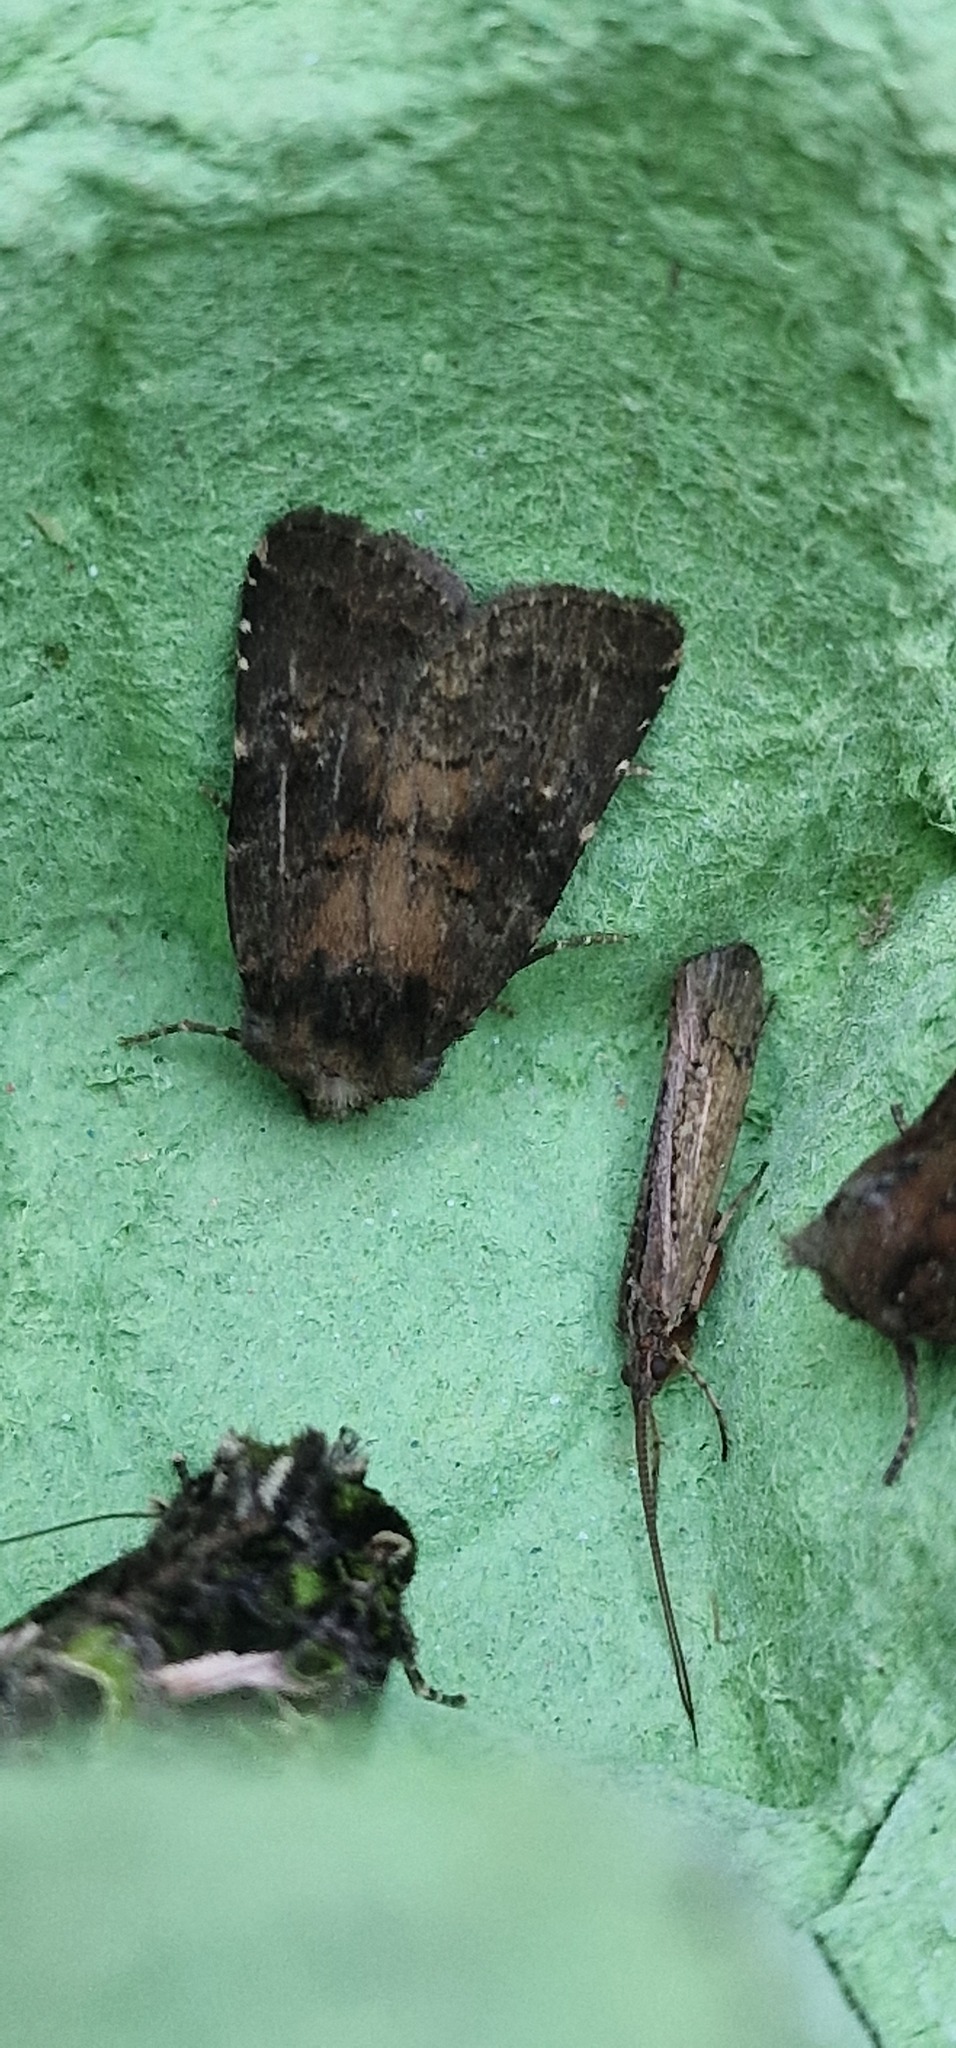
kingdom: Animalia
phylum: Arthropoda
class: Insecta
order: Lepidoptera
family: Noctuidae
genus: Charanyca
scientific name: Charanyca ferruginea
